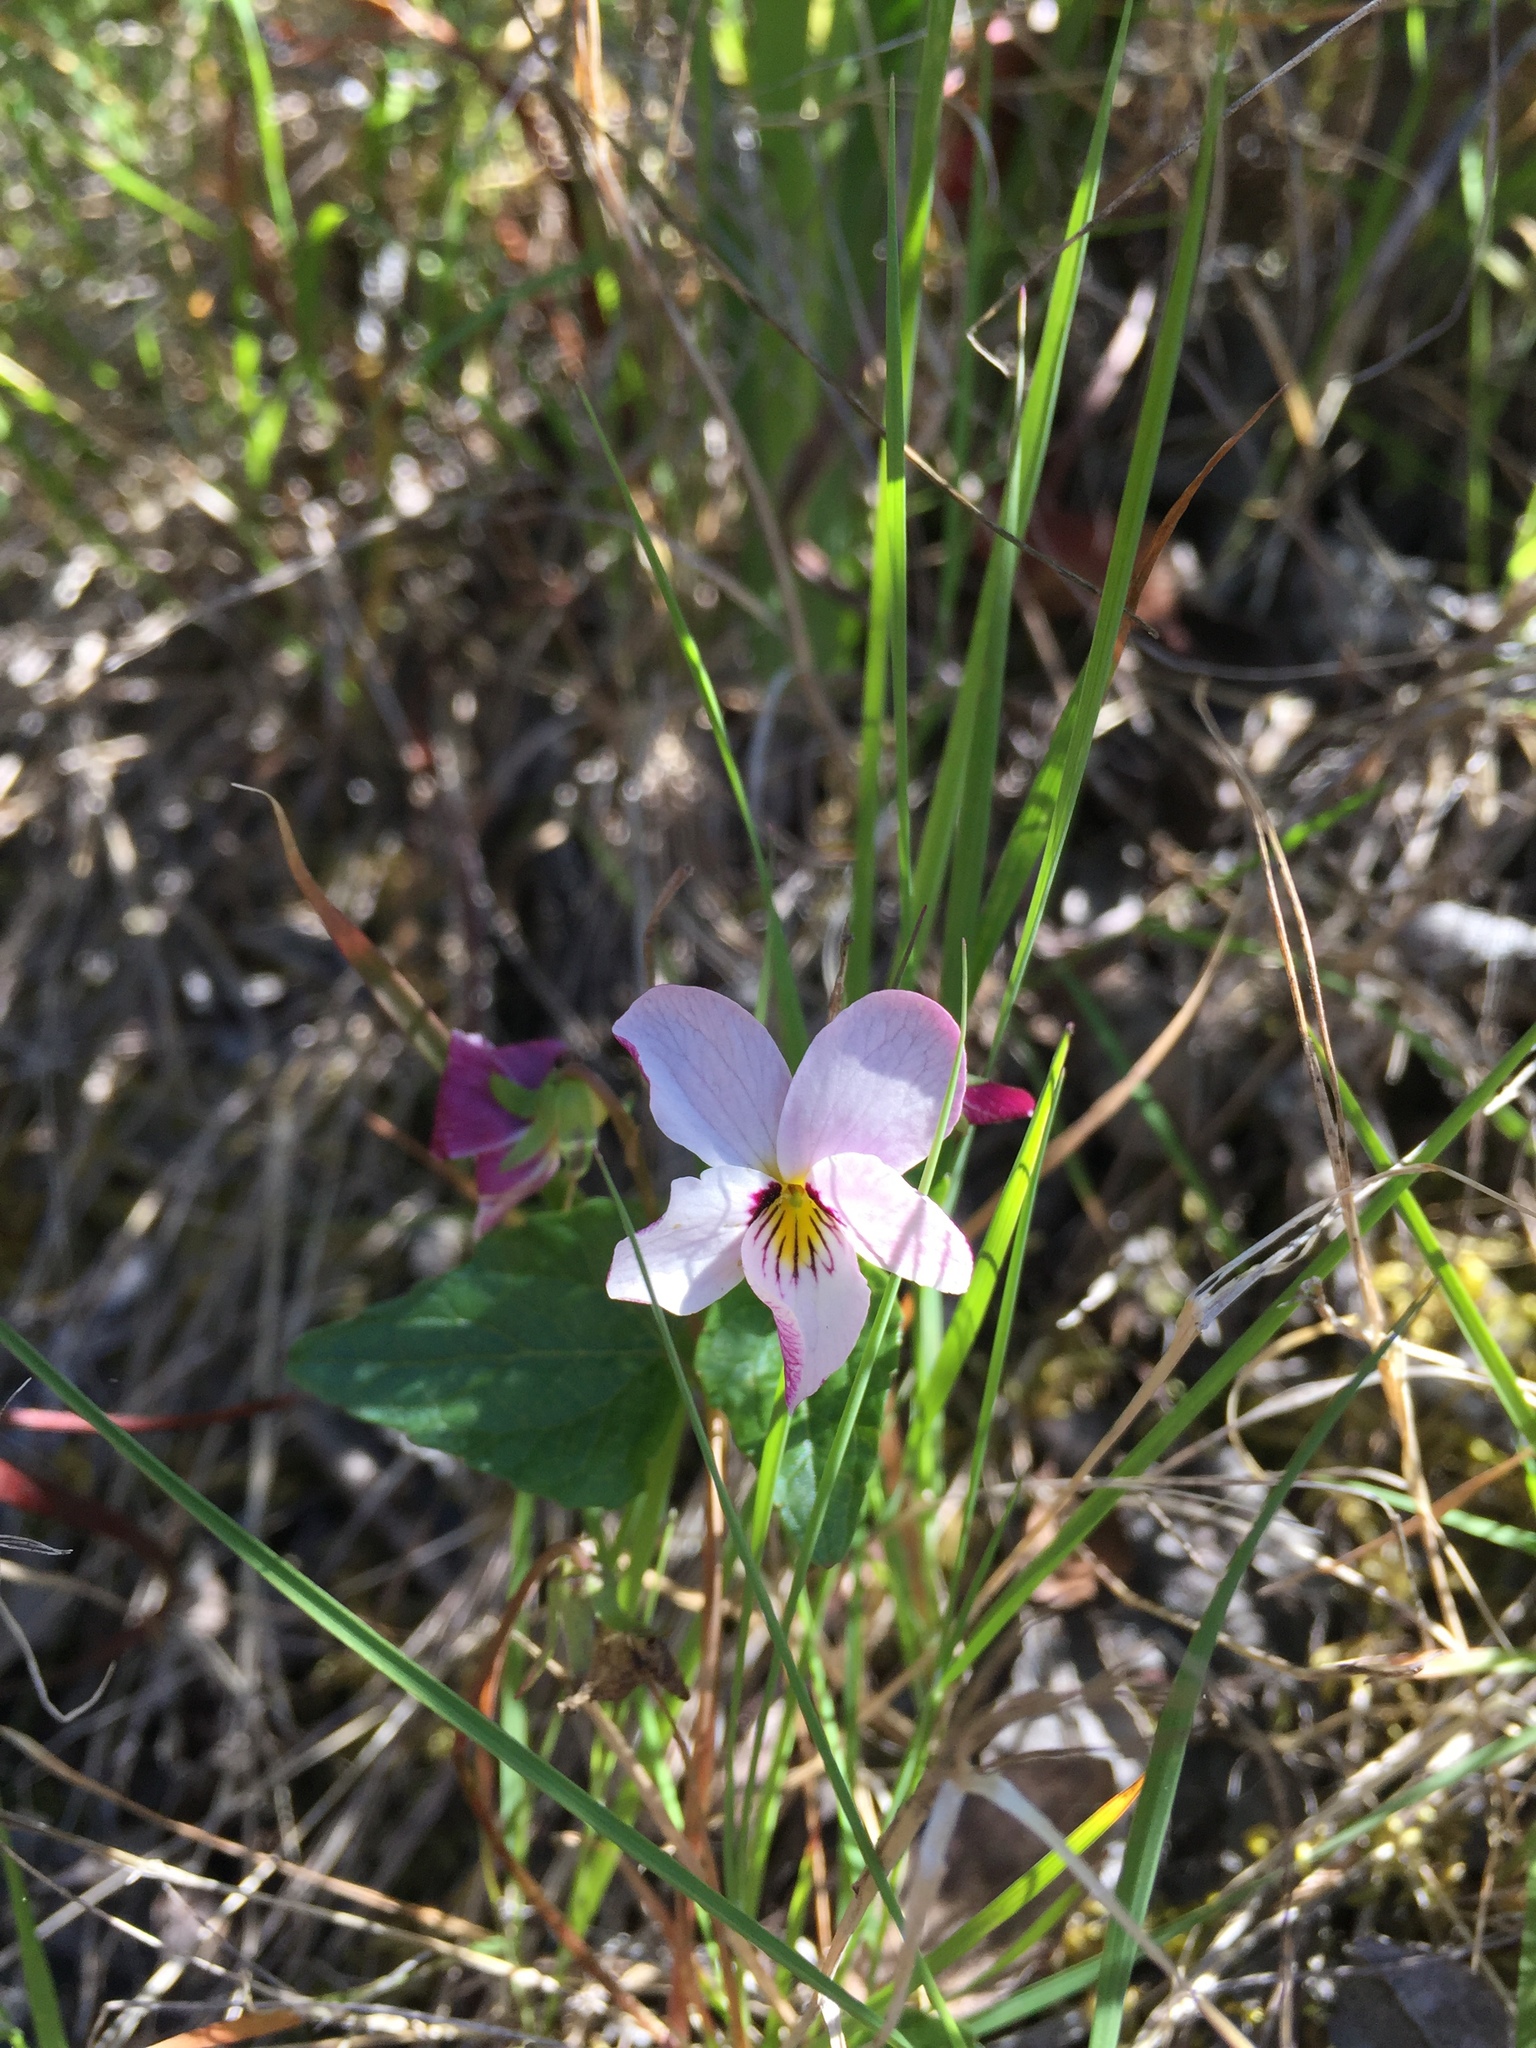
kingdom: Plantae
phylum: Tracheophyta
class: Magnoliopsida
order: Malpighiales
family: Violaceae
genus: Viola
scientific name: Viola ocellata
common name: Western heart's ease
